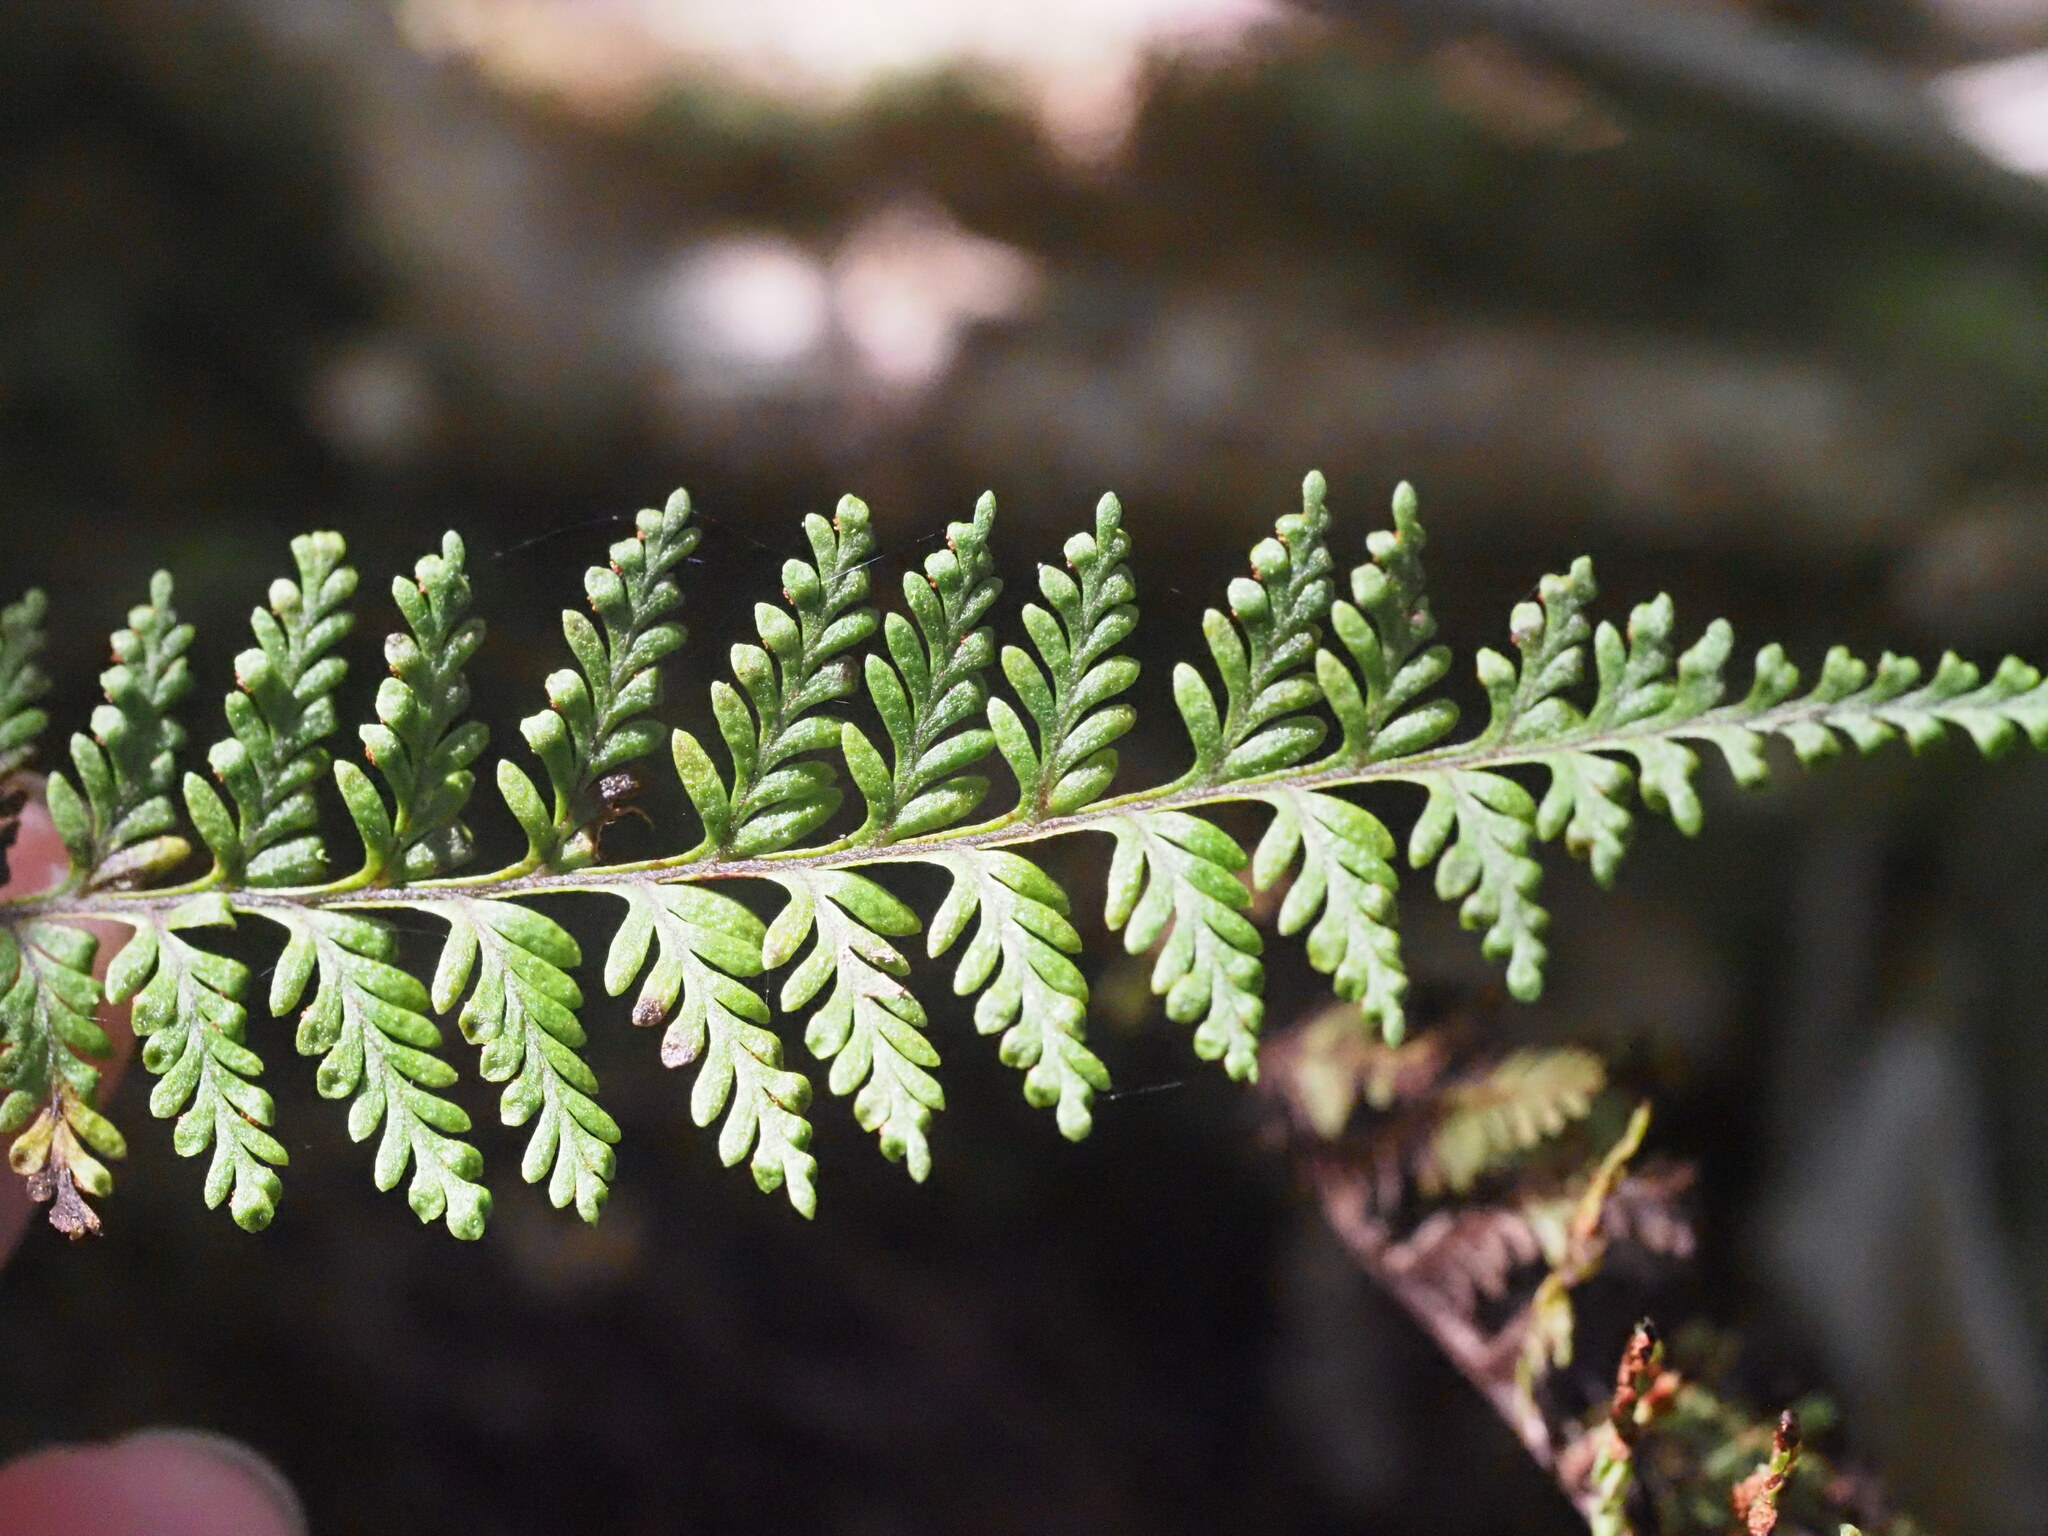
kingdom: Plantae
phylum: Tracheophyta
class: Polypodiopsida
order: Polypodiales
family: Polypodiaceae
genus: Adenophorus
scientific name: Adenophorus epigaeus
